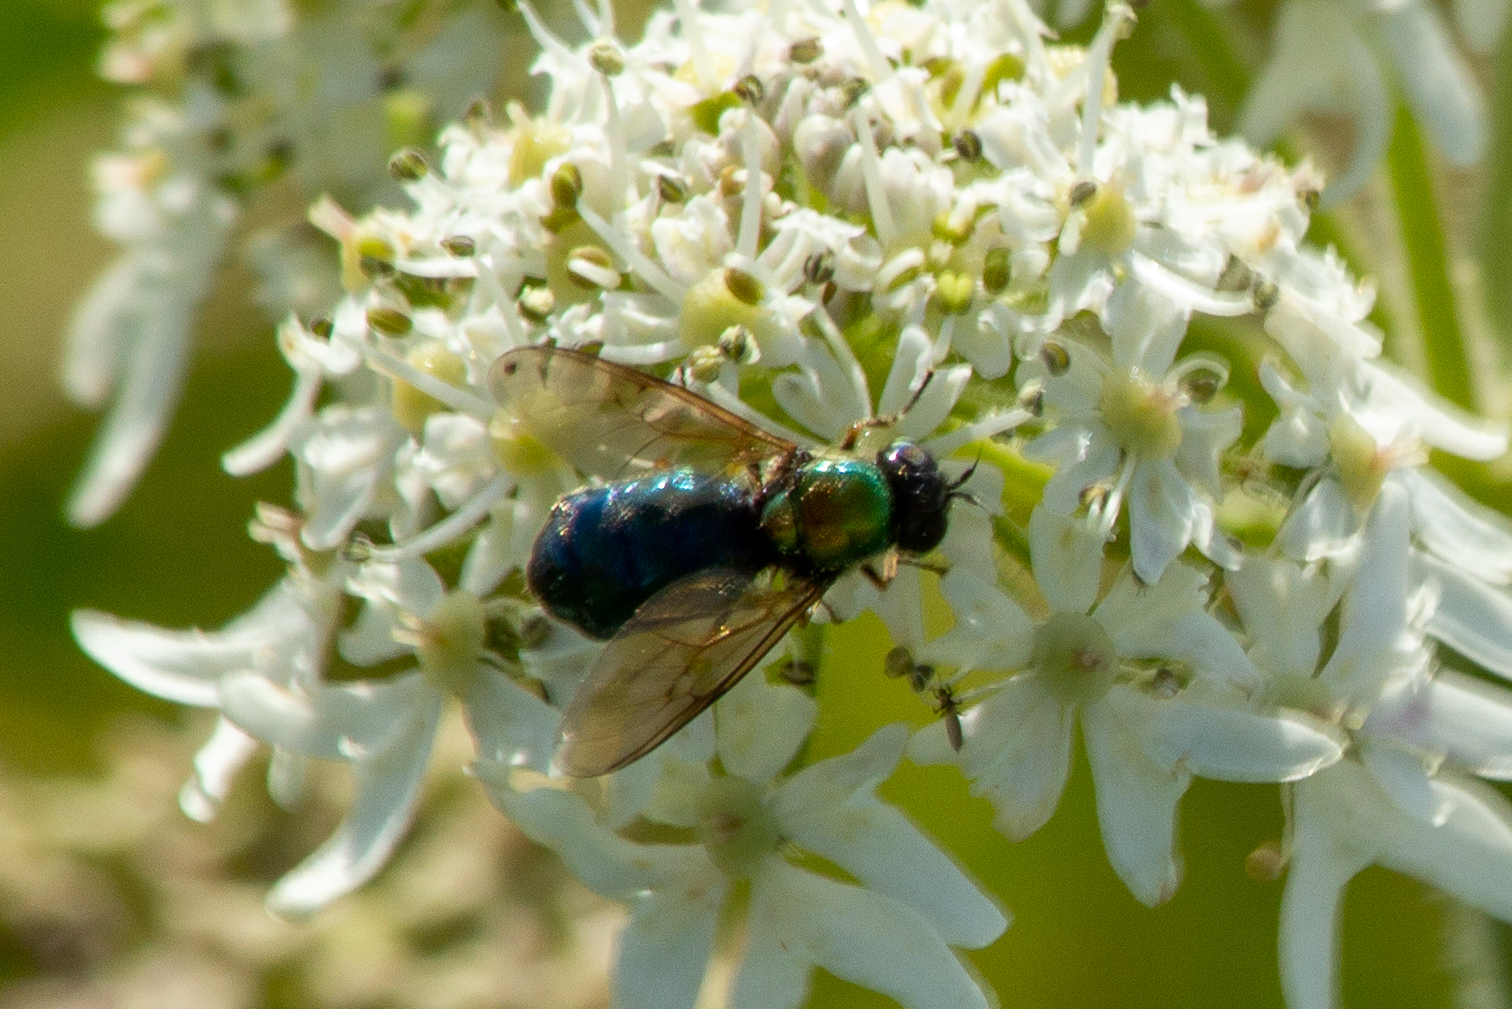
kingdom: Animalia
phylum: Arthropoda
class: Insecta
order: Diptera
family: Stratiomyidae
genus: Chloromyia
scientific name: Chloromyia formosa
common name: Soldier fly
